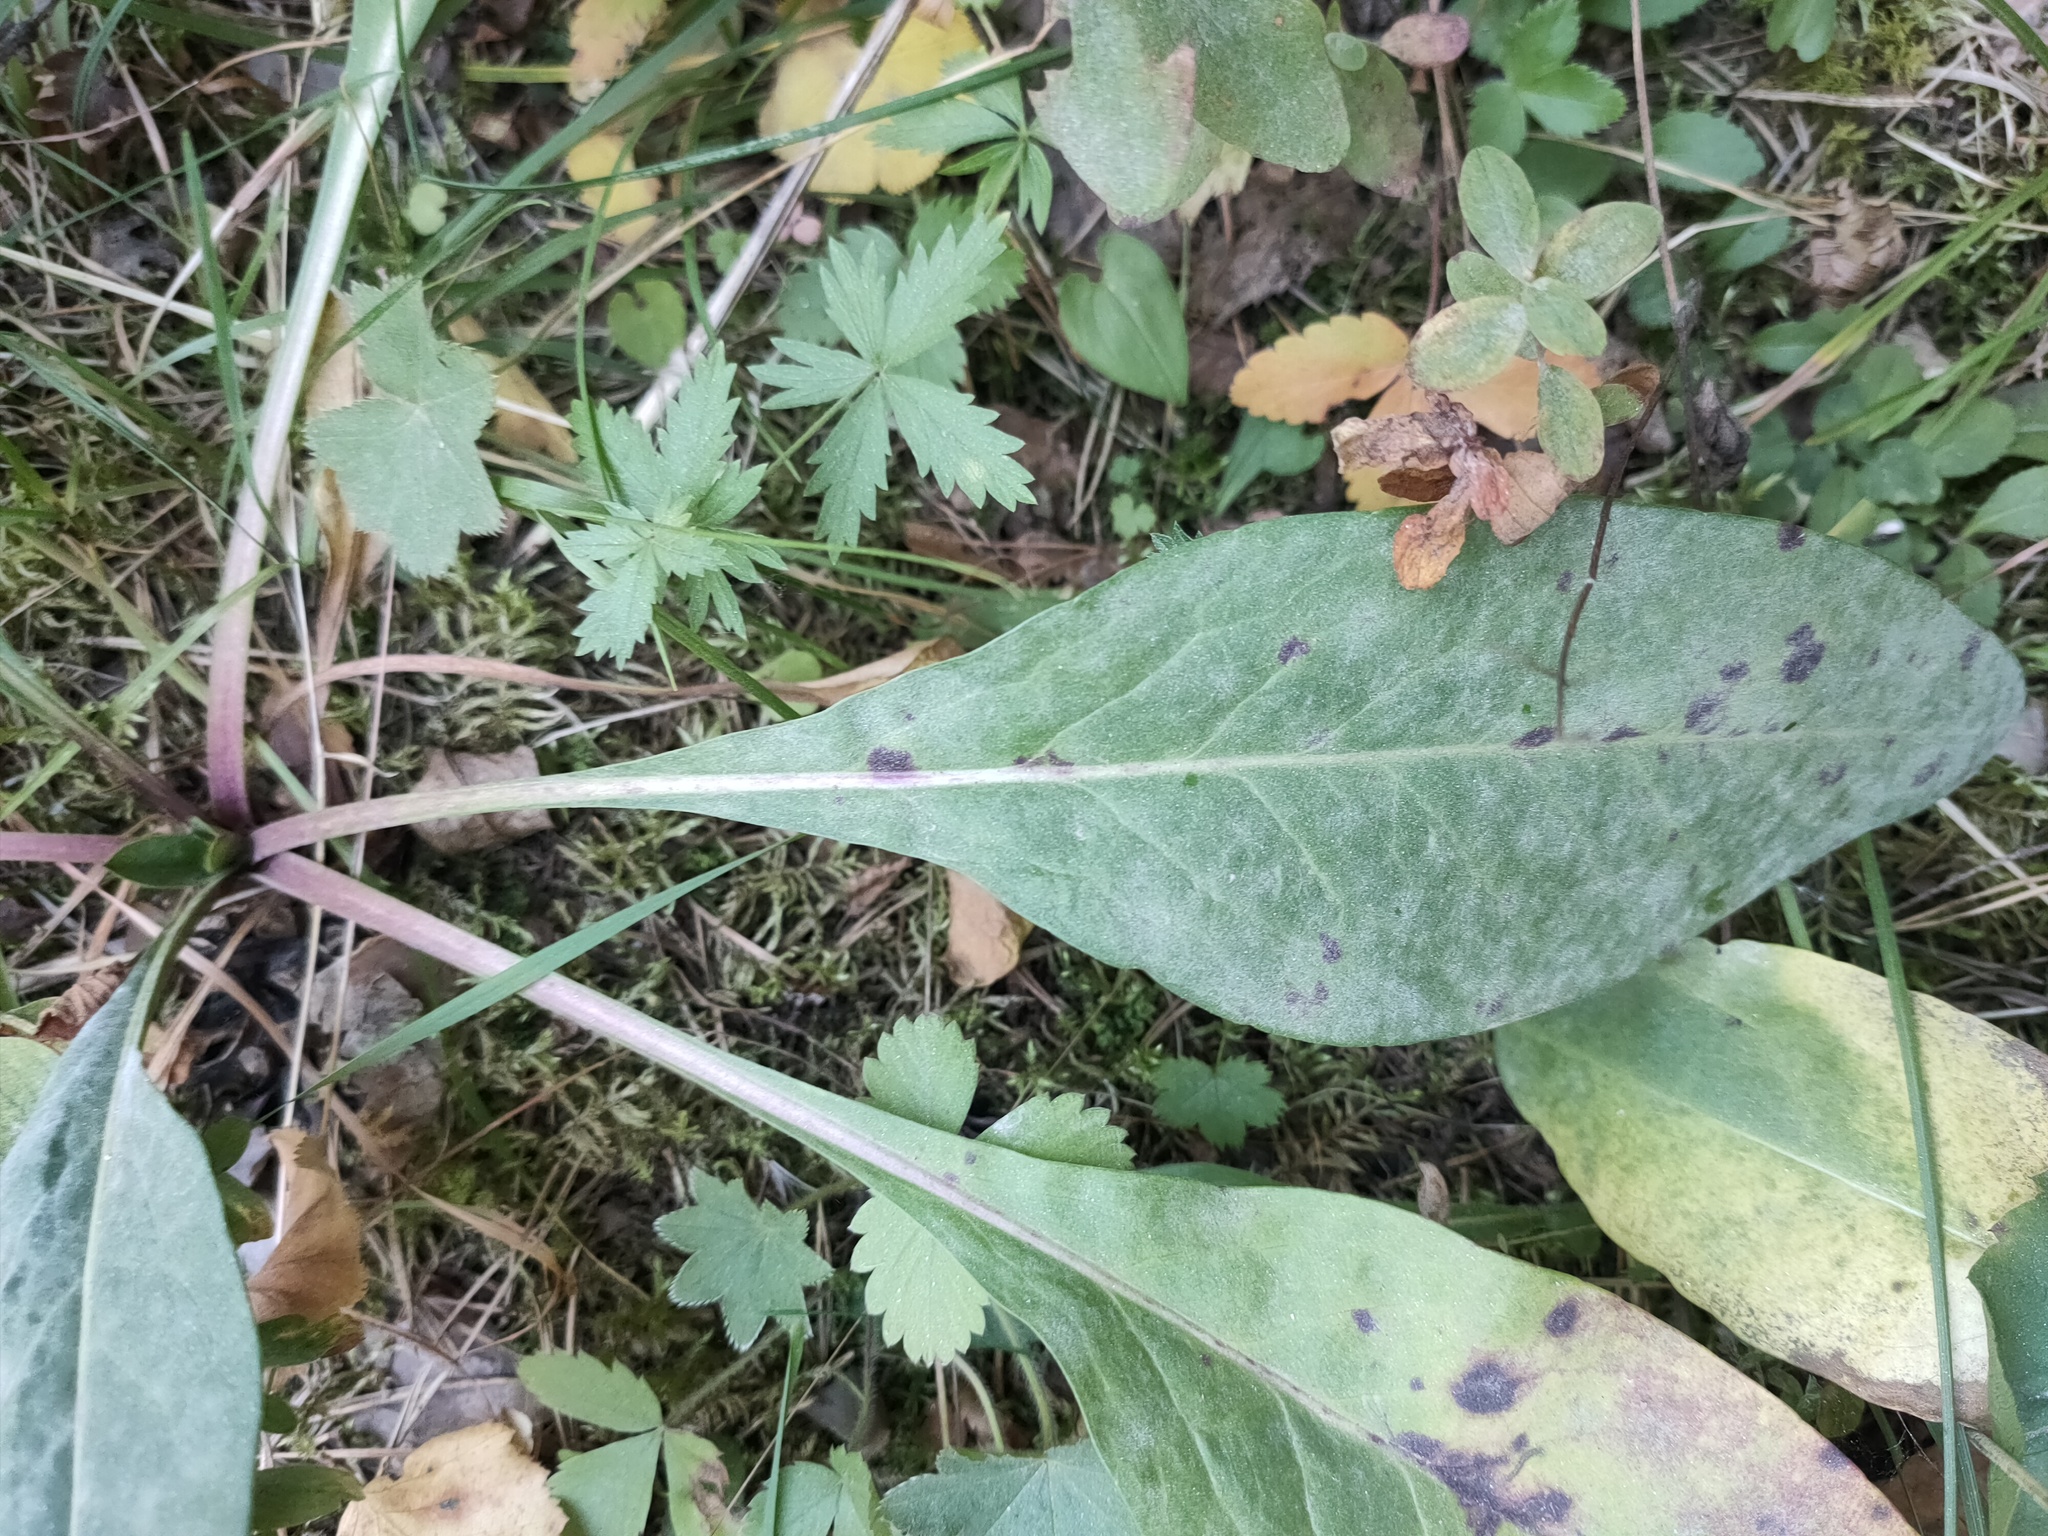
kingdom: Plantae
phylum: Tracheophyta
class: Magnoliopsida
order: Dipsacales
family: Caprifoliaceae
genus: Succisa
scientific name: Succisa pratensis
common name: Devil's-bit
